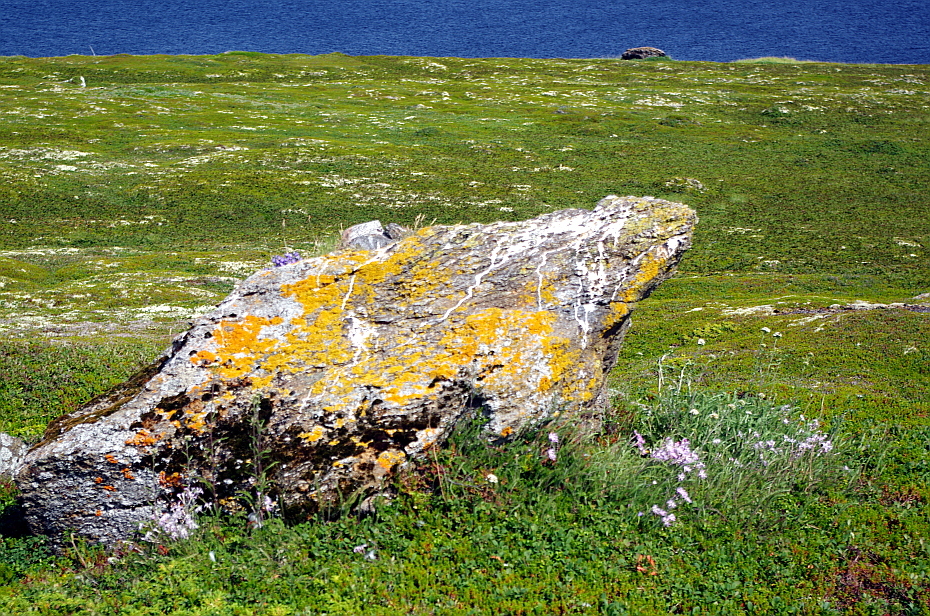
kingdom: Fungi
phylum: Ascomycota
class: Lecanoromycetes
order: Teloschistales
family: Teloschistaceae
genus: Xanthoria
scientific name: Xanthoria parietina
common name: Common orange lichen
